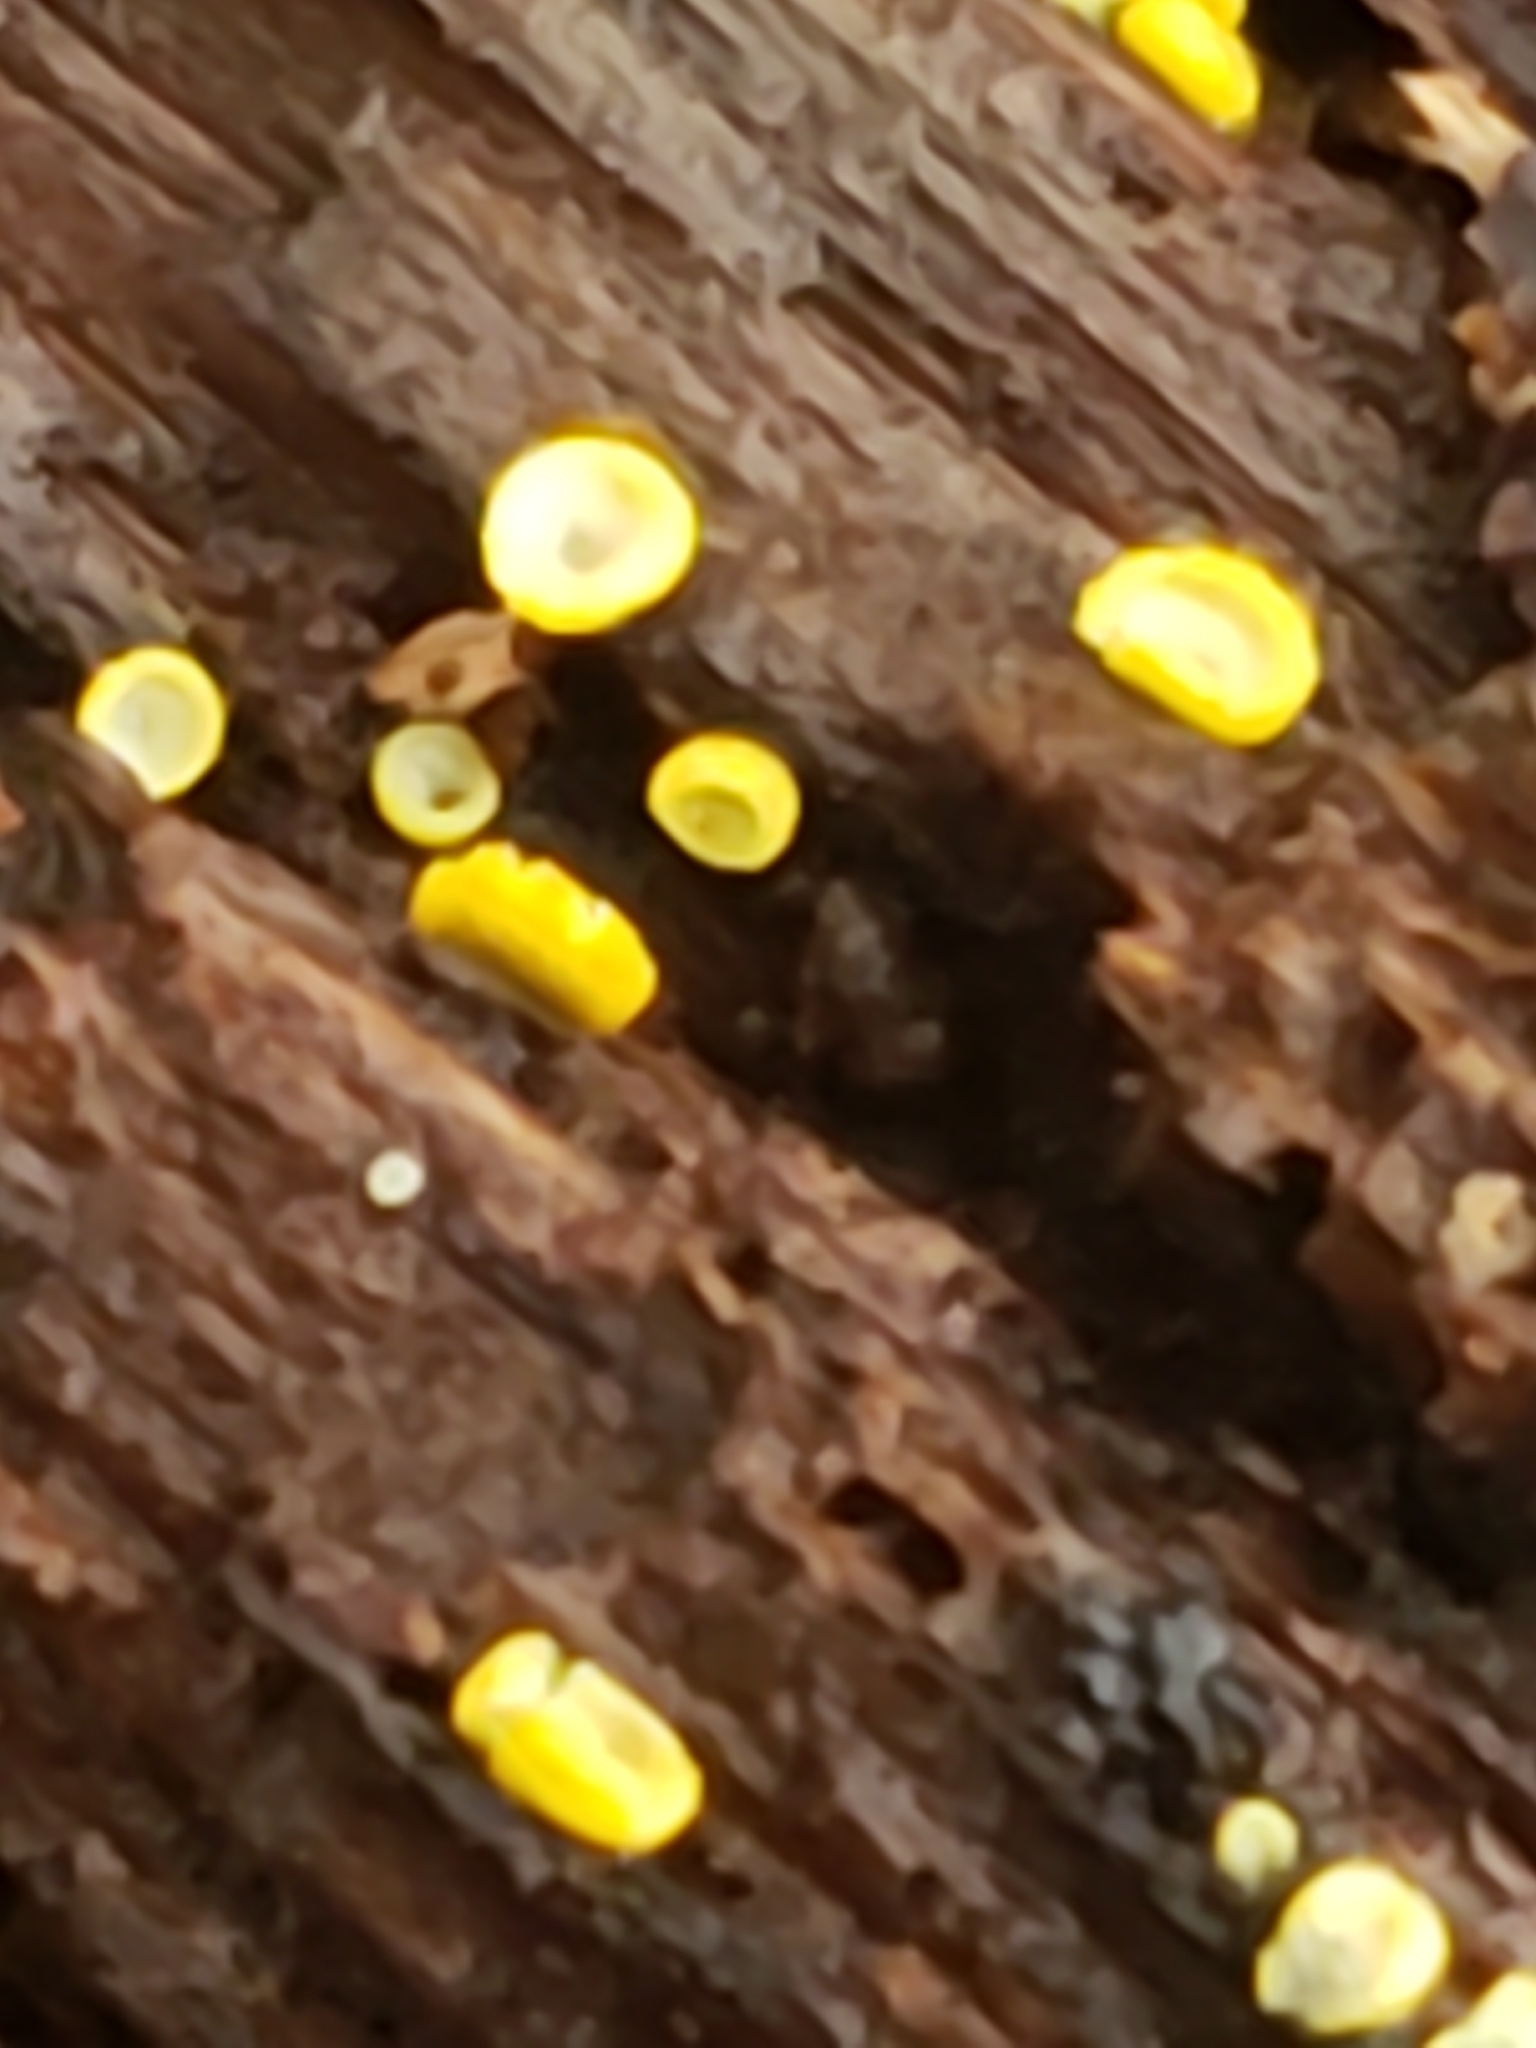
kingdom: Fungi
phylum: Ascomycota
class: Leotiomycetes
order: Helotiales
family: Chlorospleniaceae
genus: Chlorosplenium
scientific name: Chlorosplenium chlora
